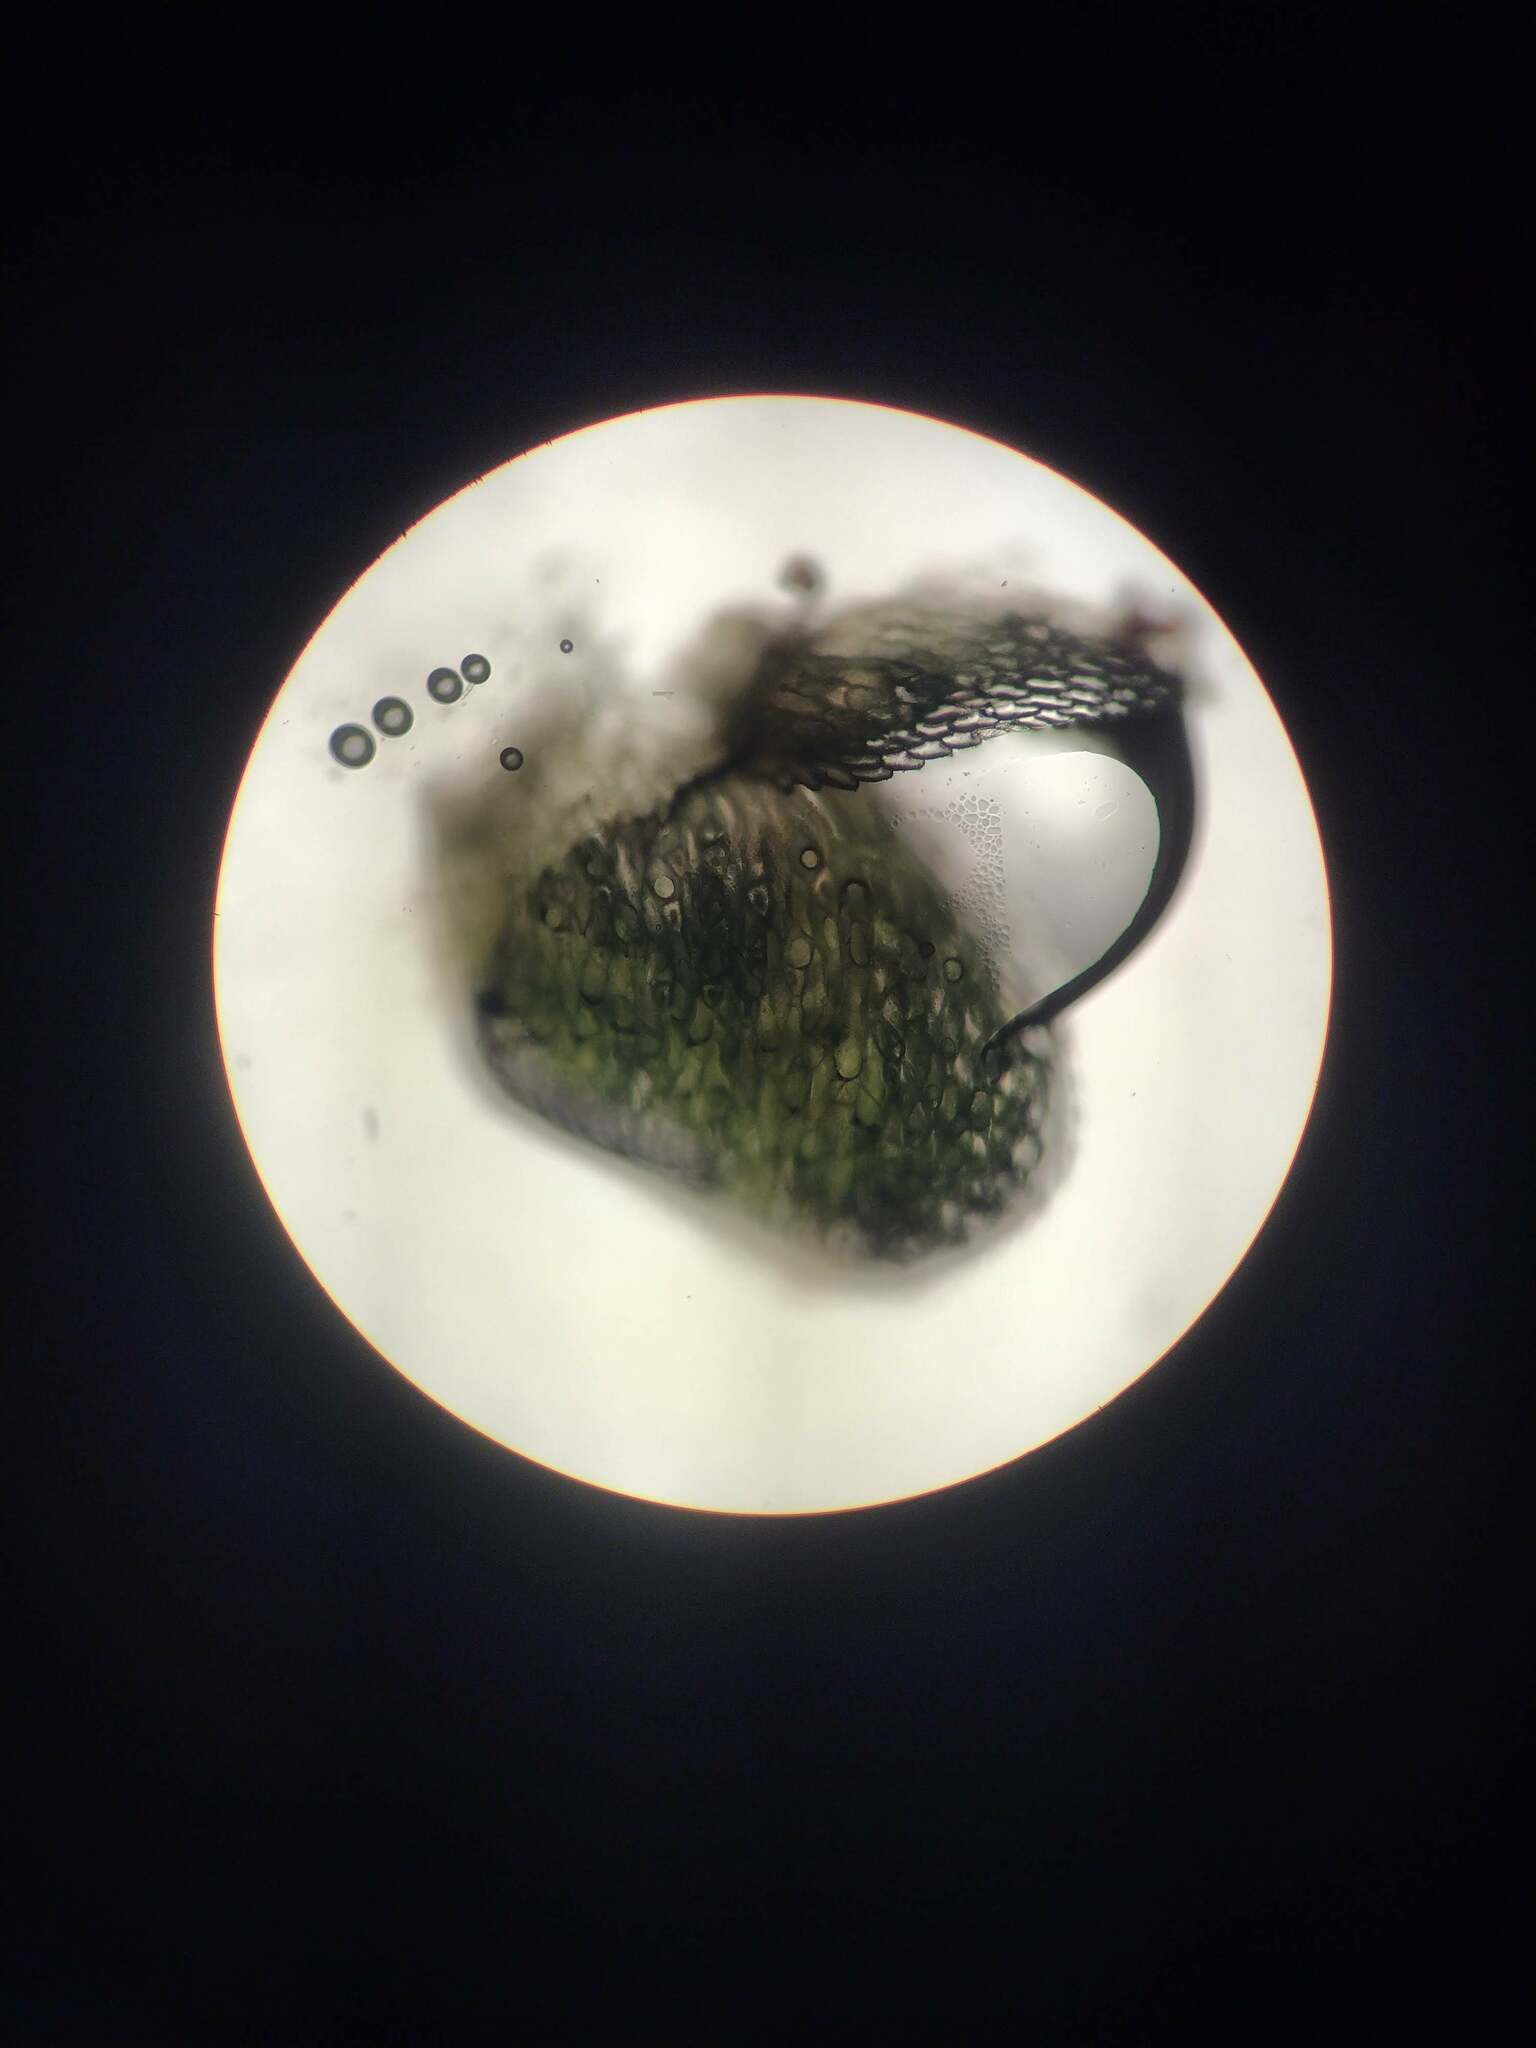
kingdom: Plantae
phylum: Tracheophyta
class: Polypodiopsida
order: Salviniales
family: Salviniaceae
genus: Azolla
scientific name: Azolla filiculoides
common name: Water fern
